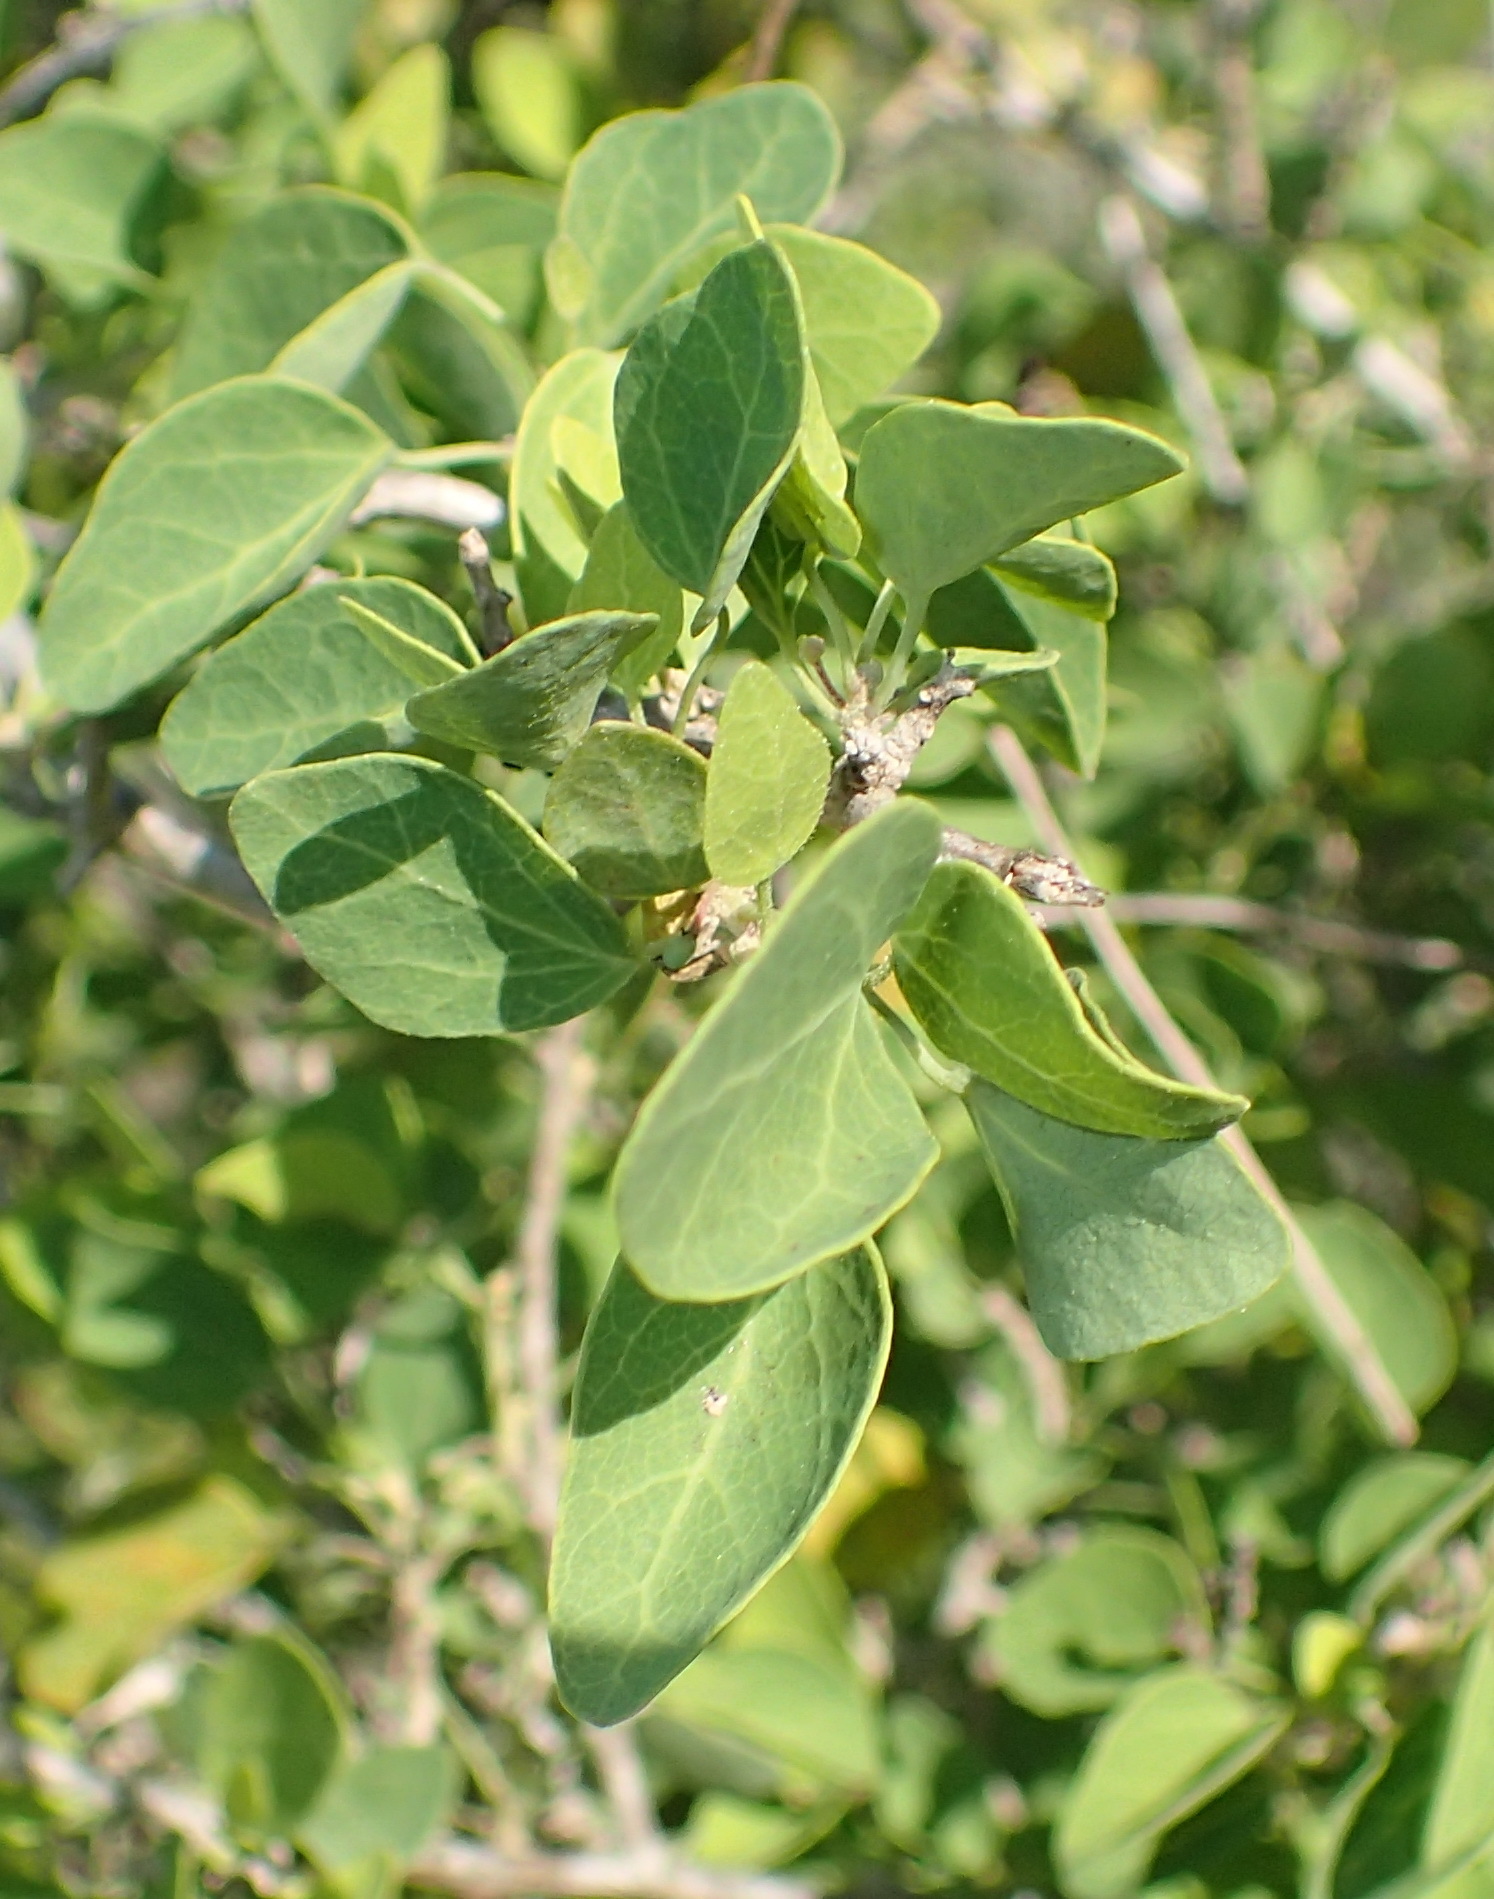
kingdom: Plantae
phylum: Tracheophyta
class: Magnoliopsida
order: Ranunculales
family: Menispermaceae
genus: Cissampelos
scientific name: Cissampelos capensis
